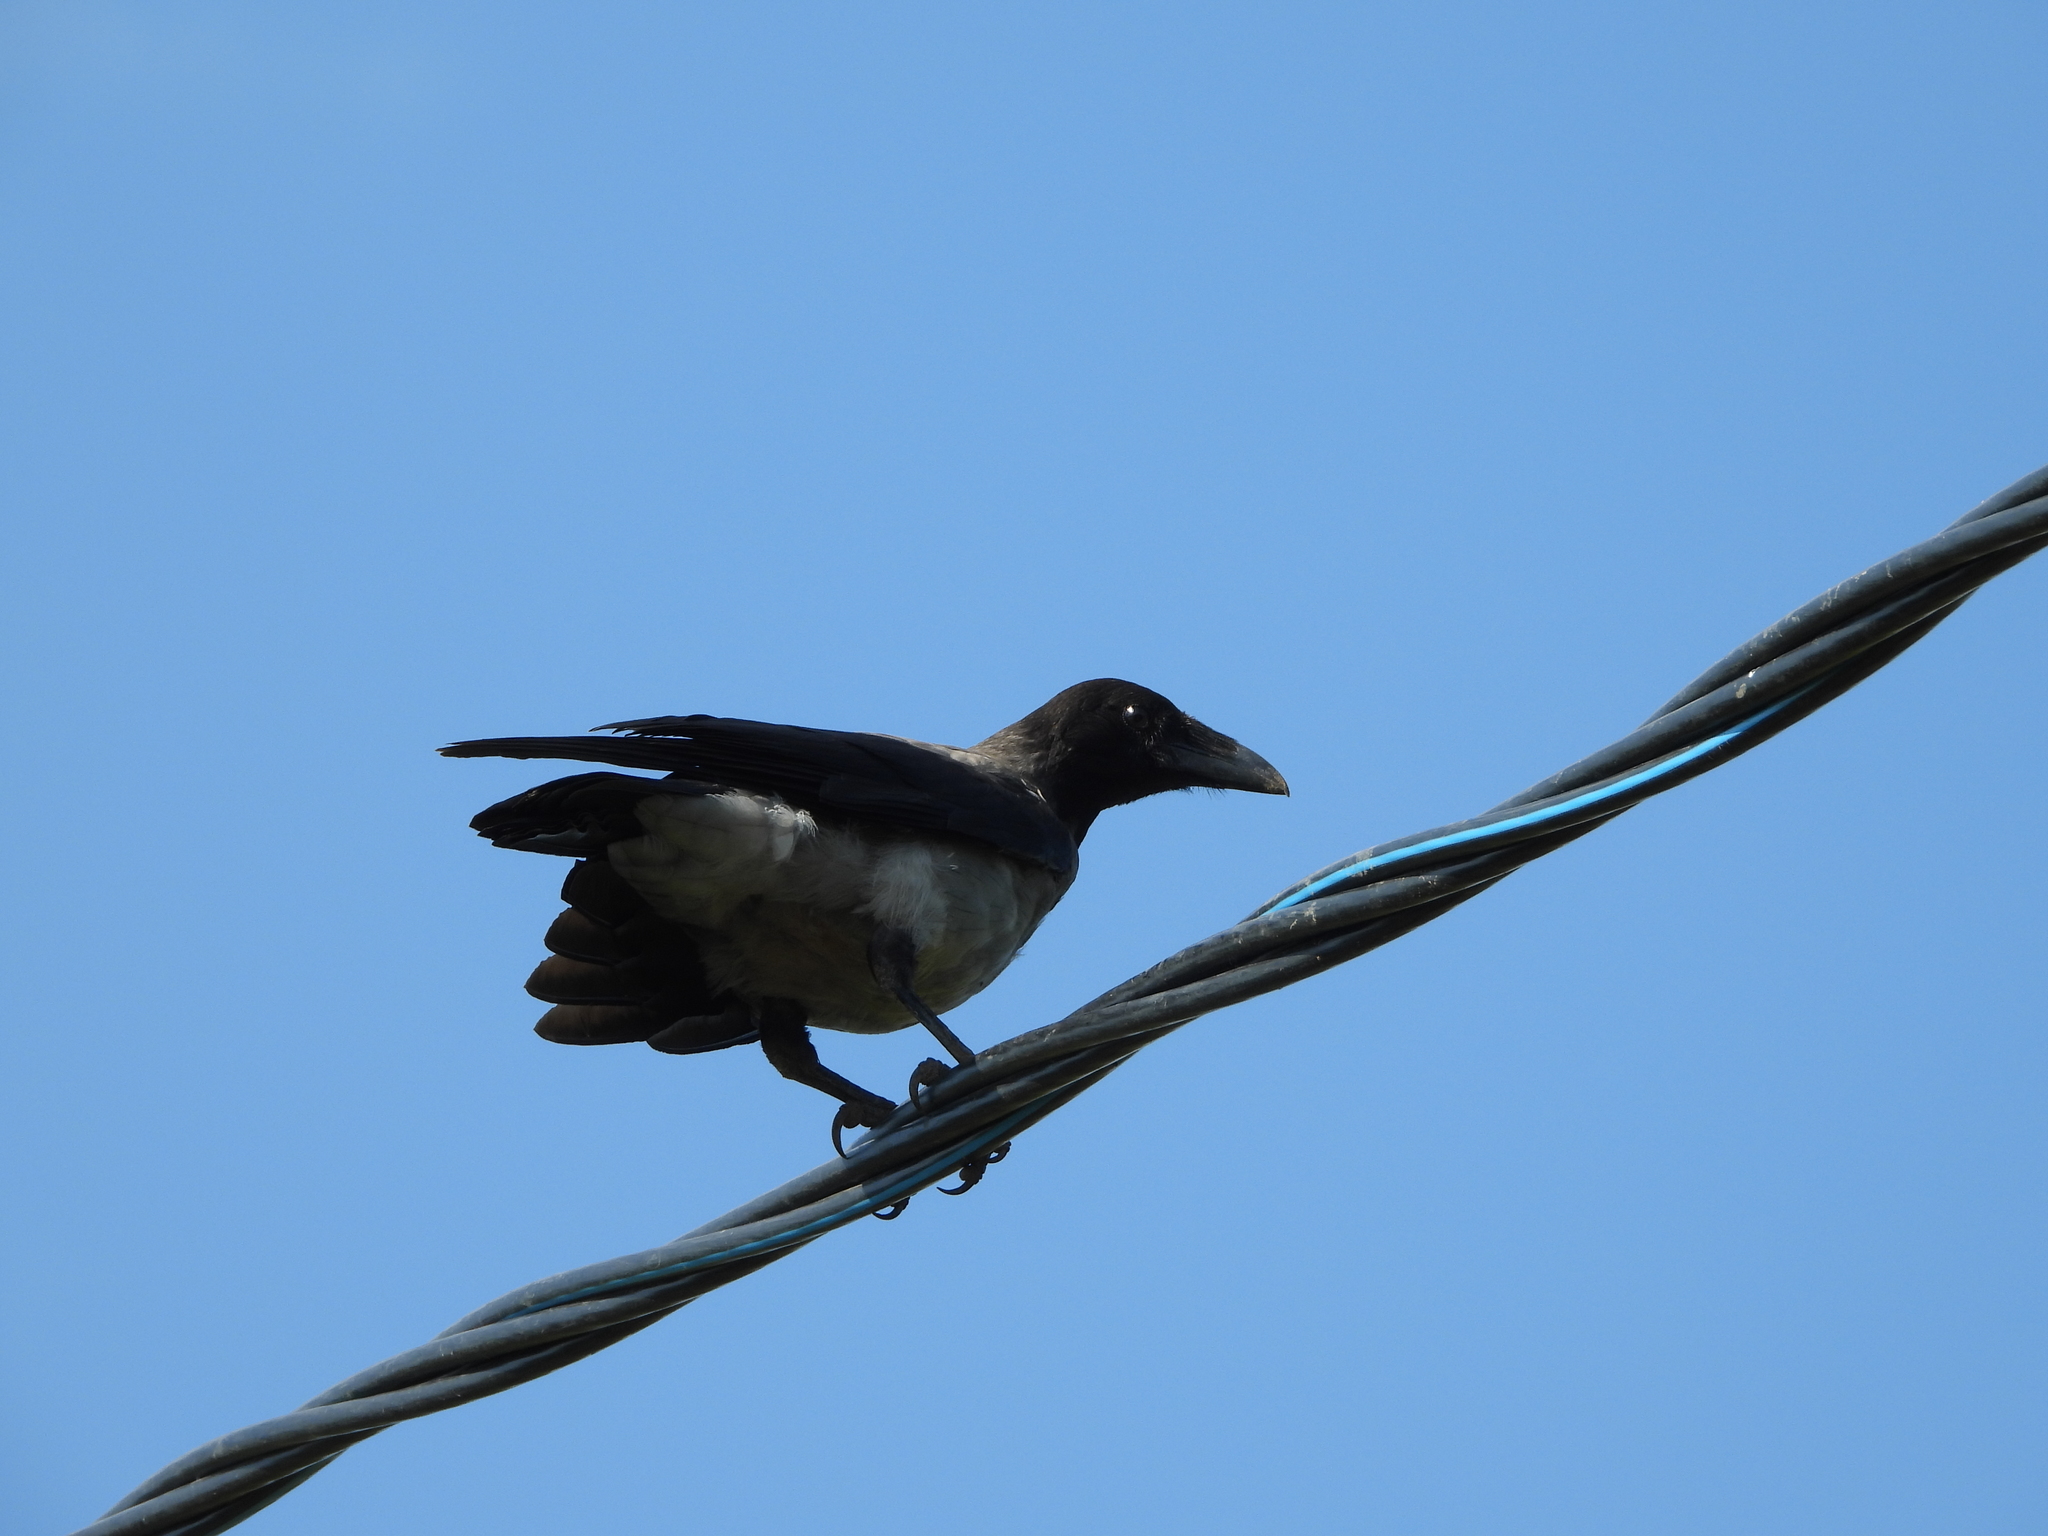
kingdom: Animalia
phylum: Chordata
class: Aves
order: Passeriformes
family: Corvidae
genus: Corvus
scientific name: Corvus cornix
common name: Hooded crow
